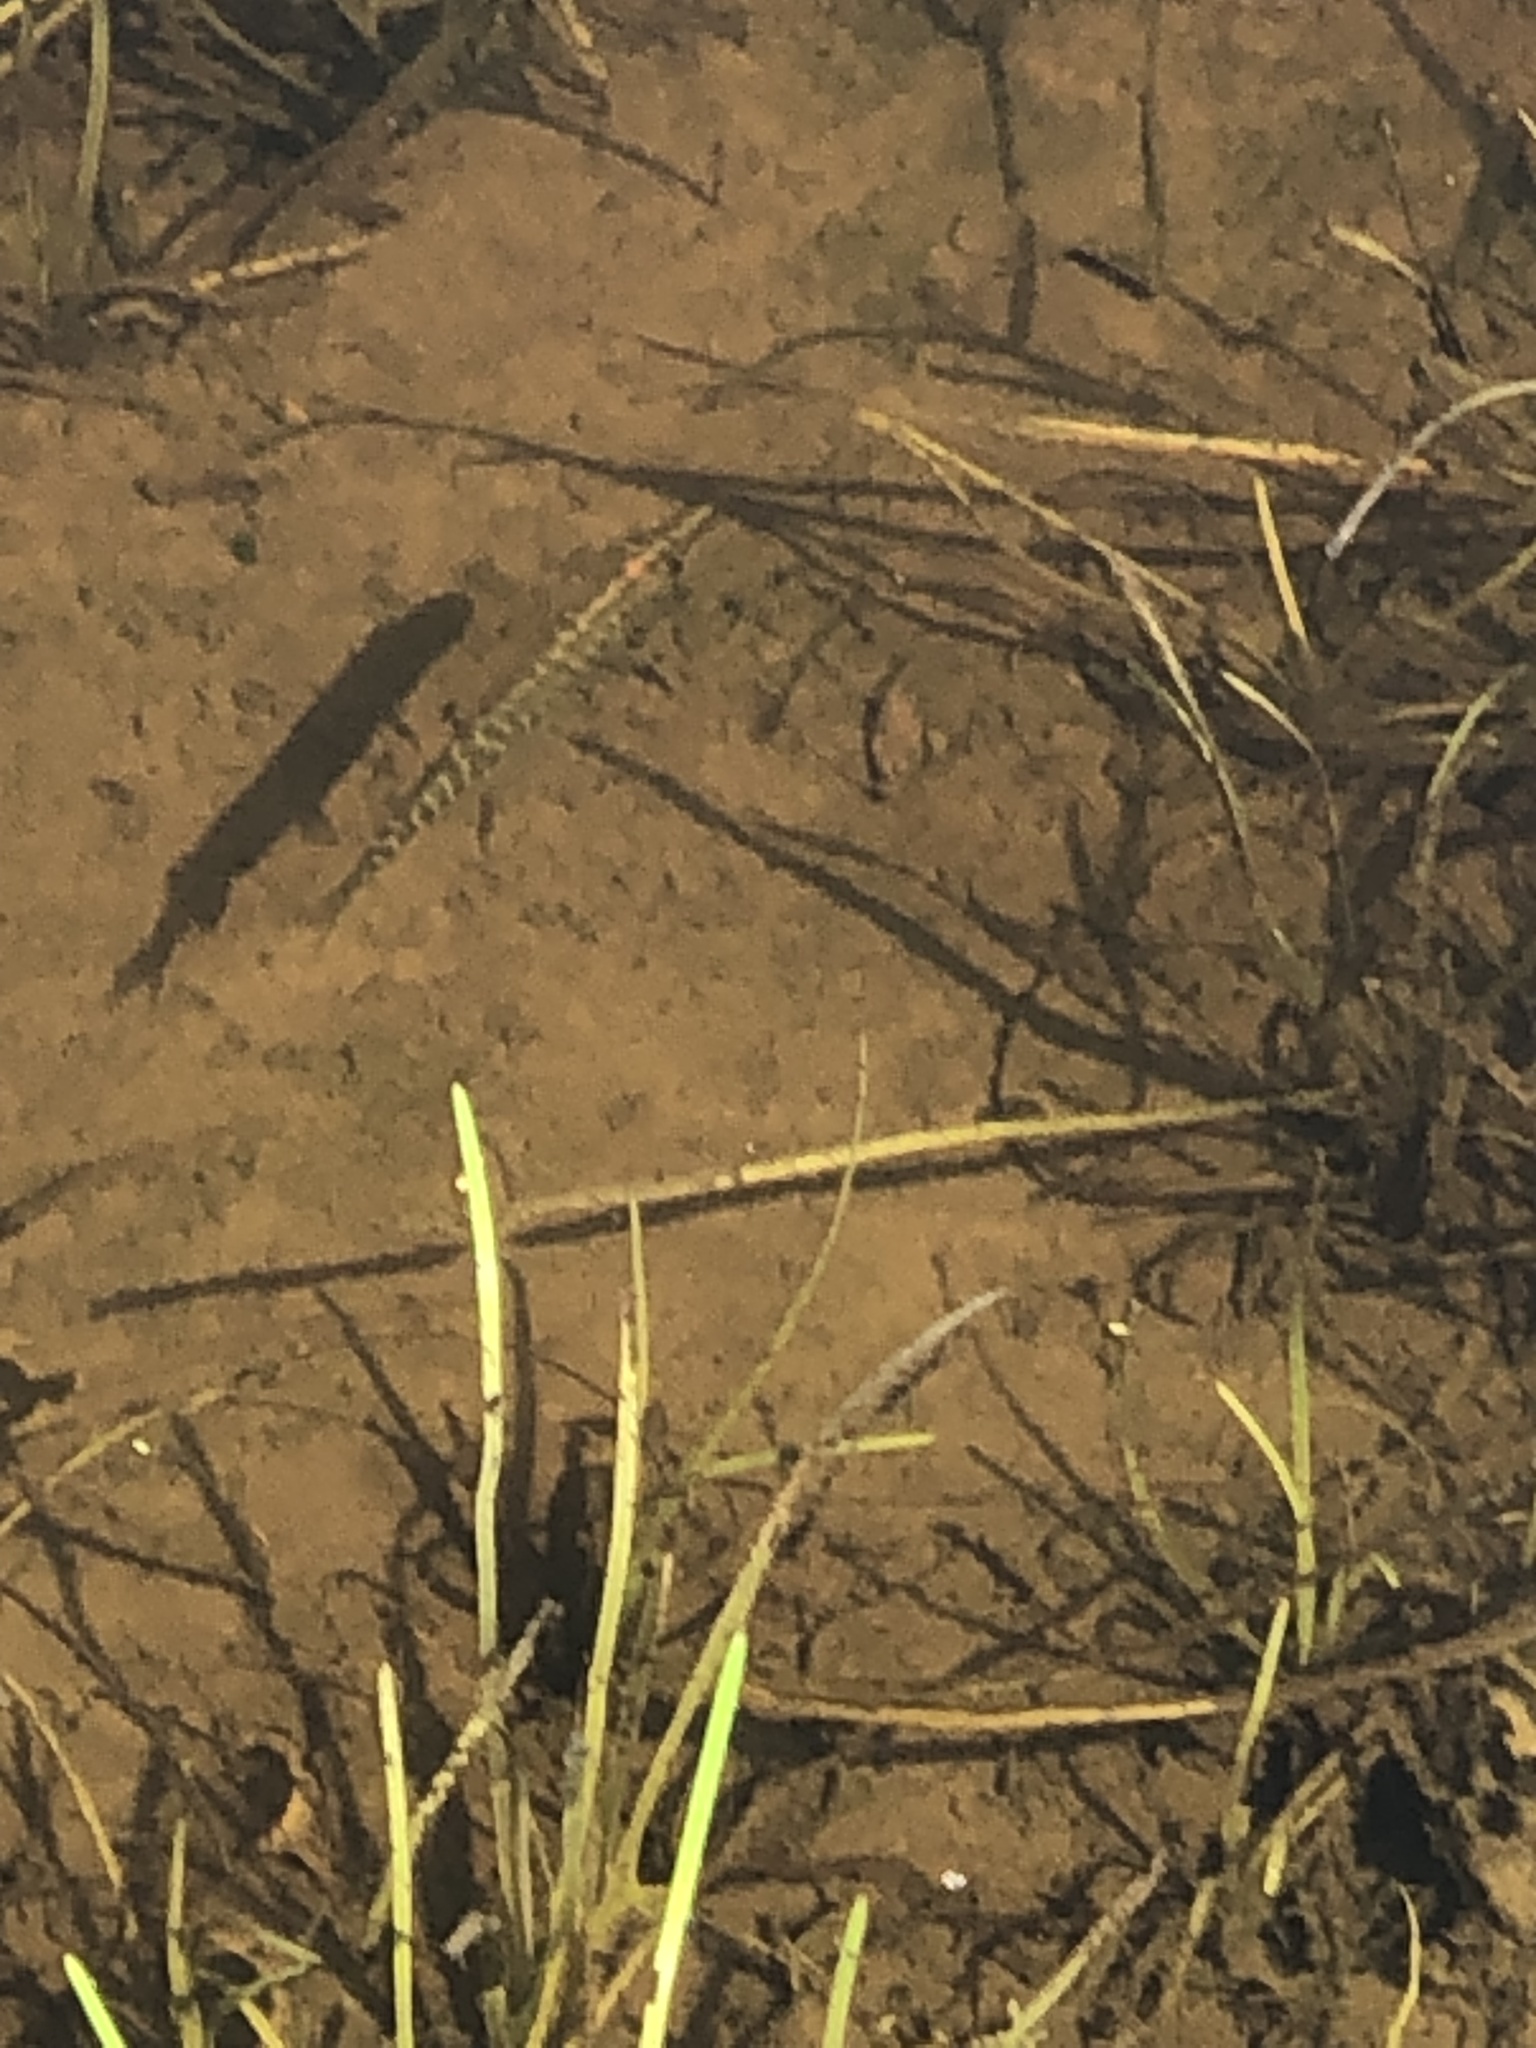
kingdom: Animalia
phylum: Chordata
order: Esociformes
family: Esocidae
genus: Esox
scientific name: Esox lucius
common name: Northern pike
